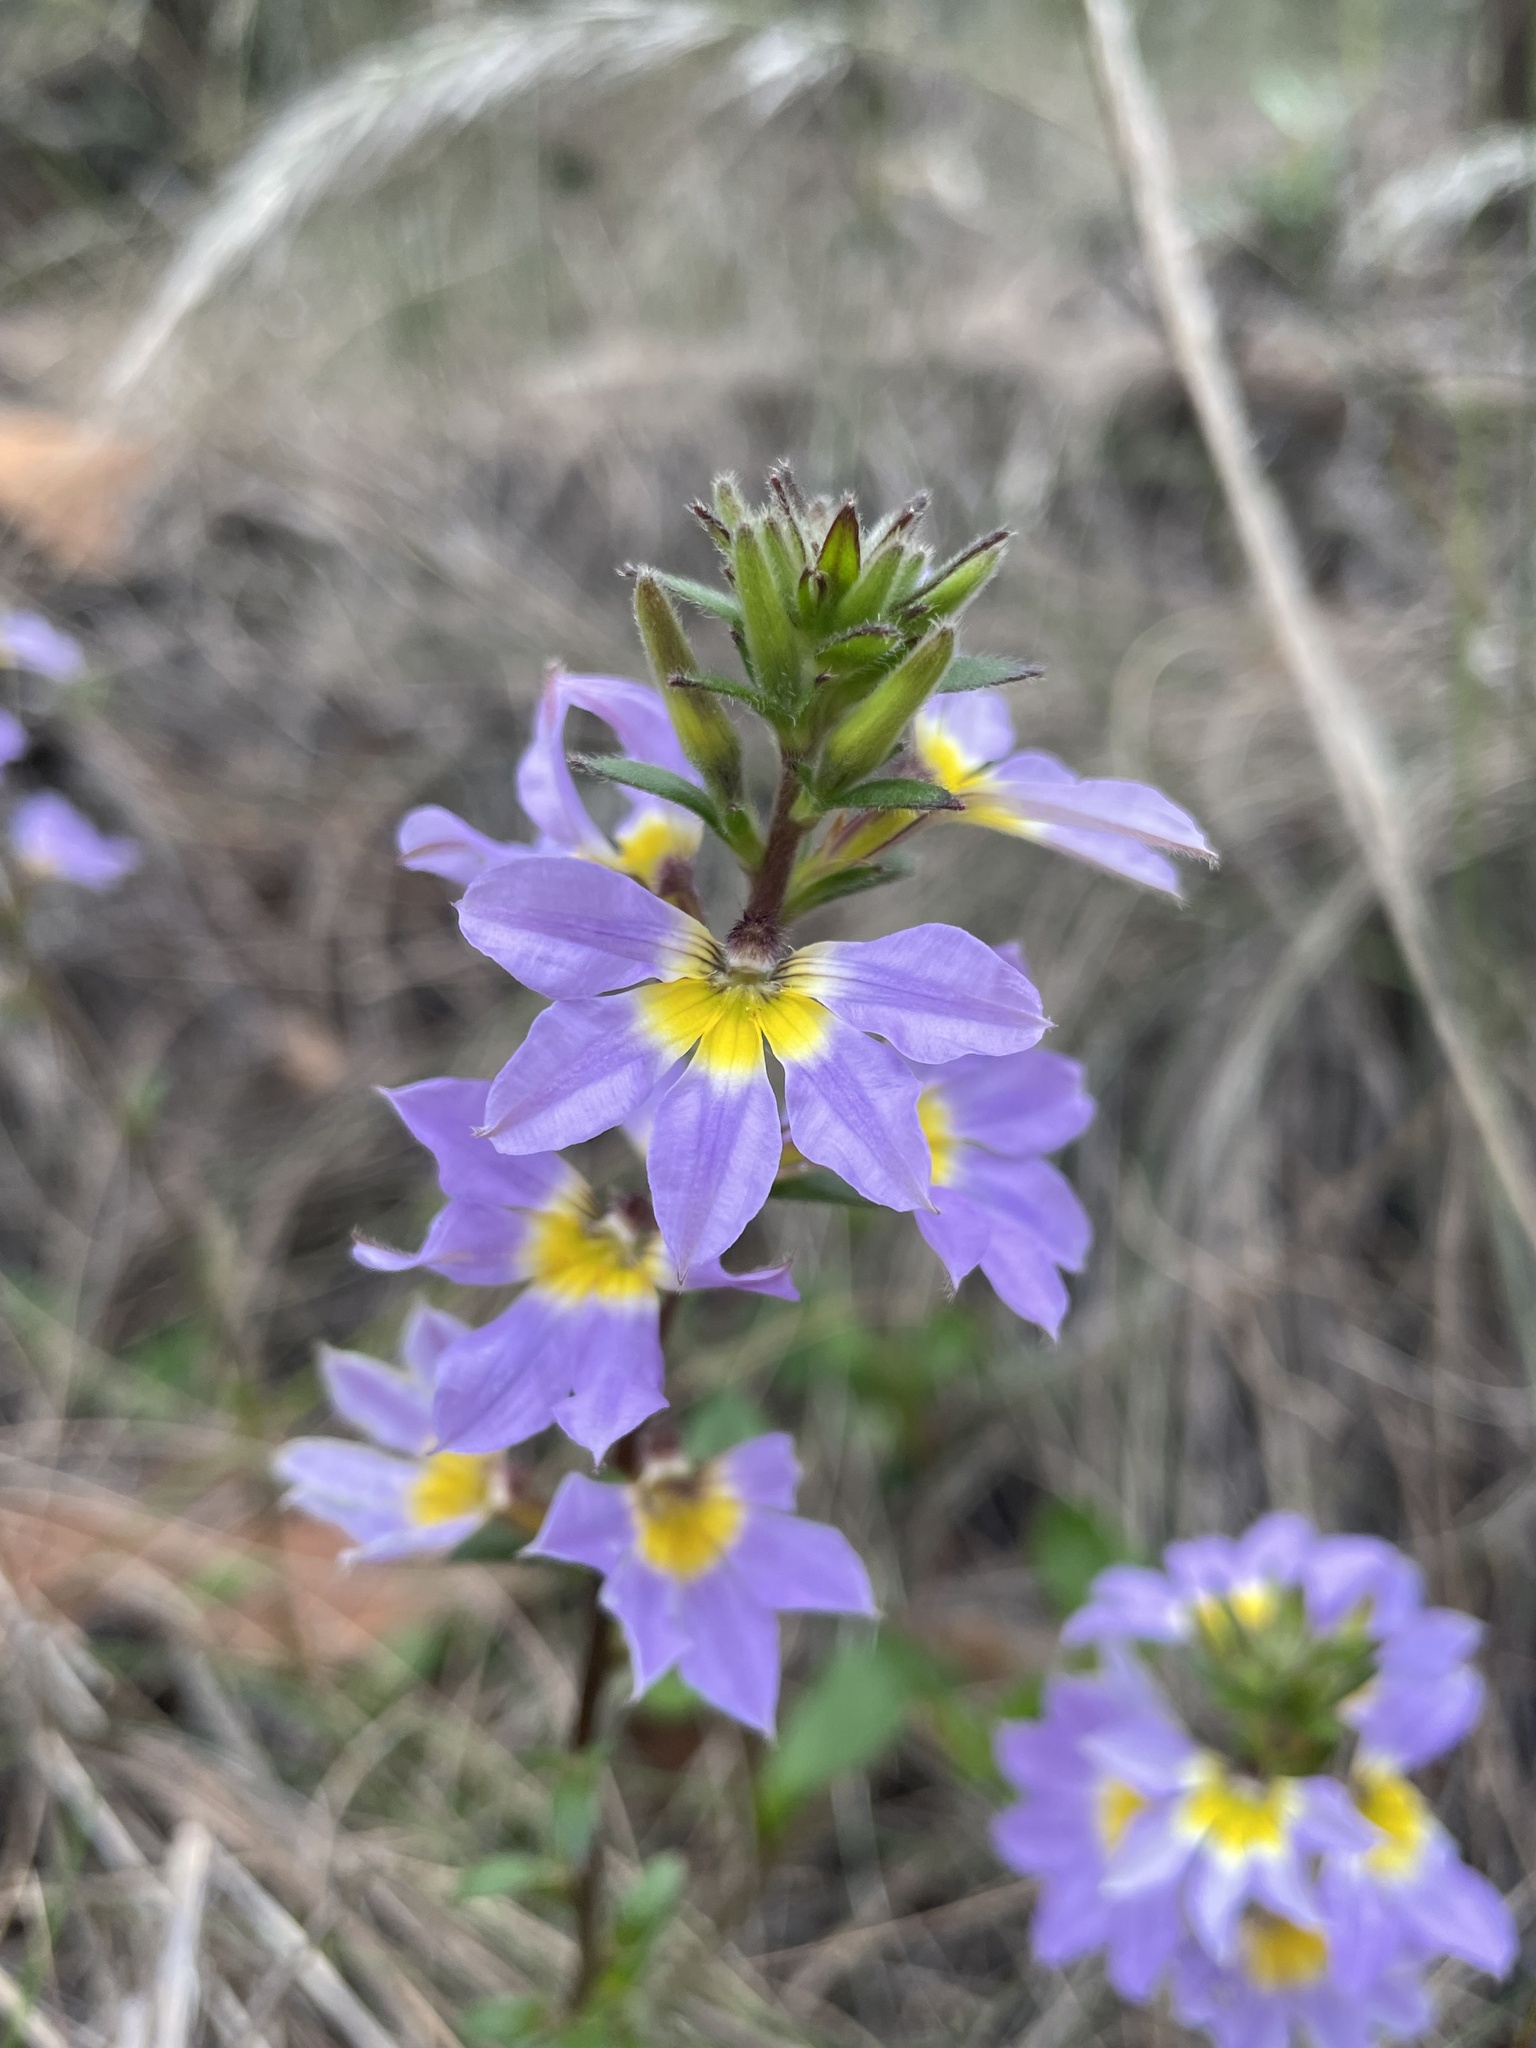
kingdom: Plantae
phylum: Tracheophyta
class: Magnoliopsida
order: Asterales
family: Goodeniaceae
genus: Scaevola
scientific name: Scaevola aemula
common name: Common fanflower
